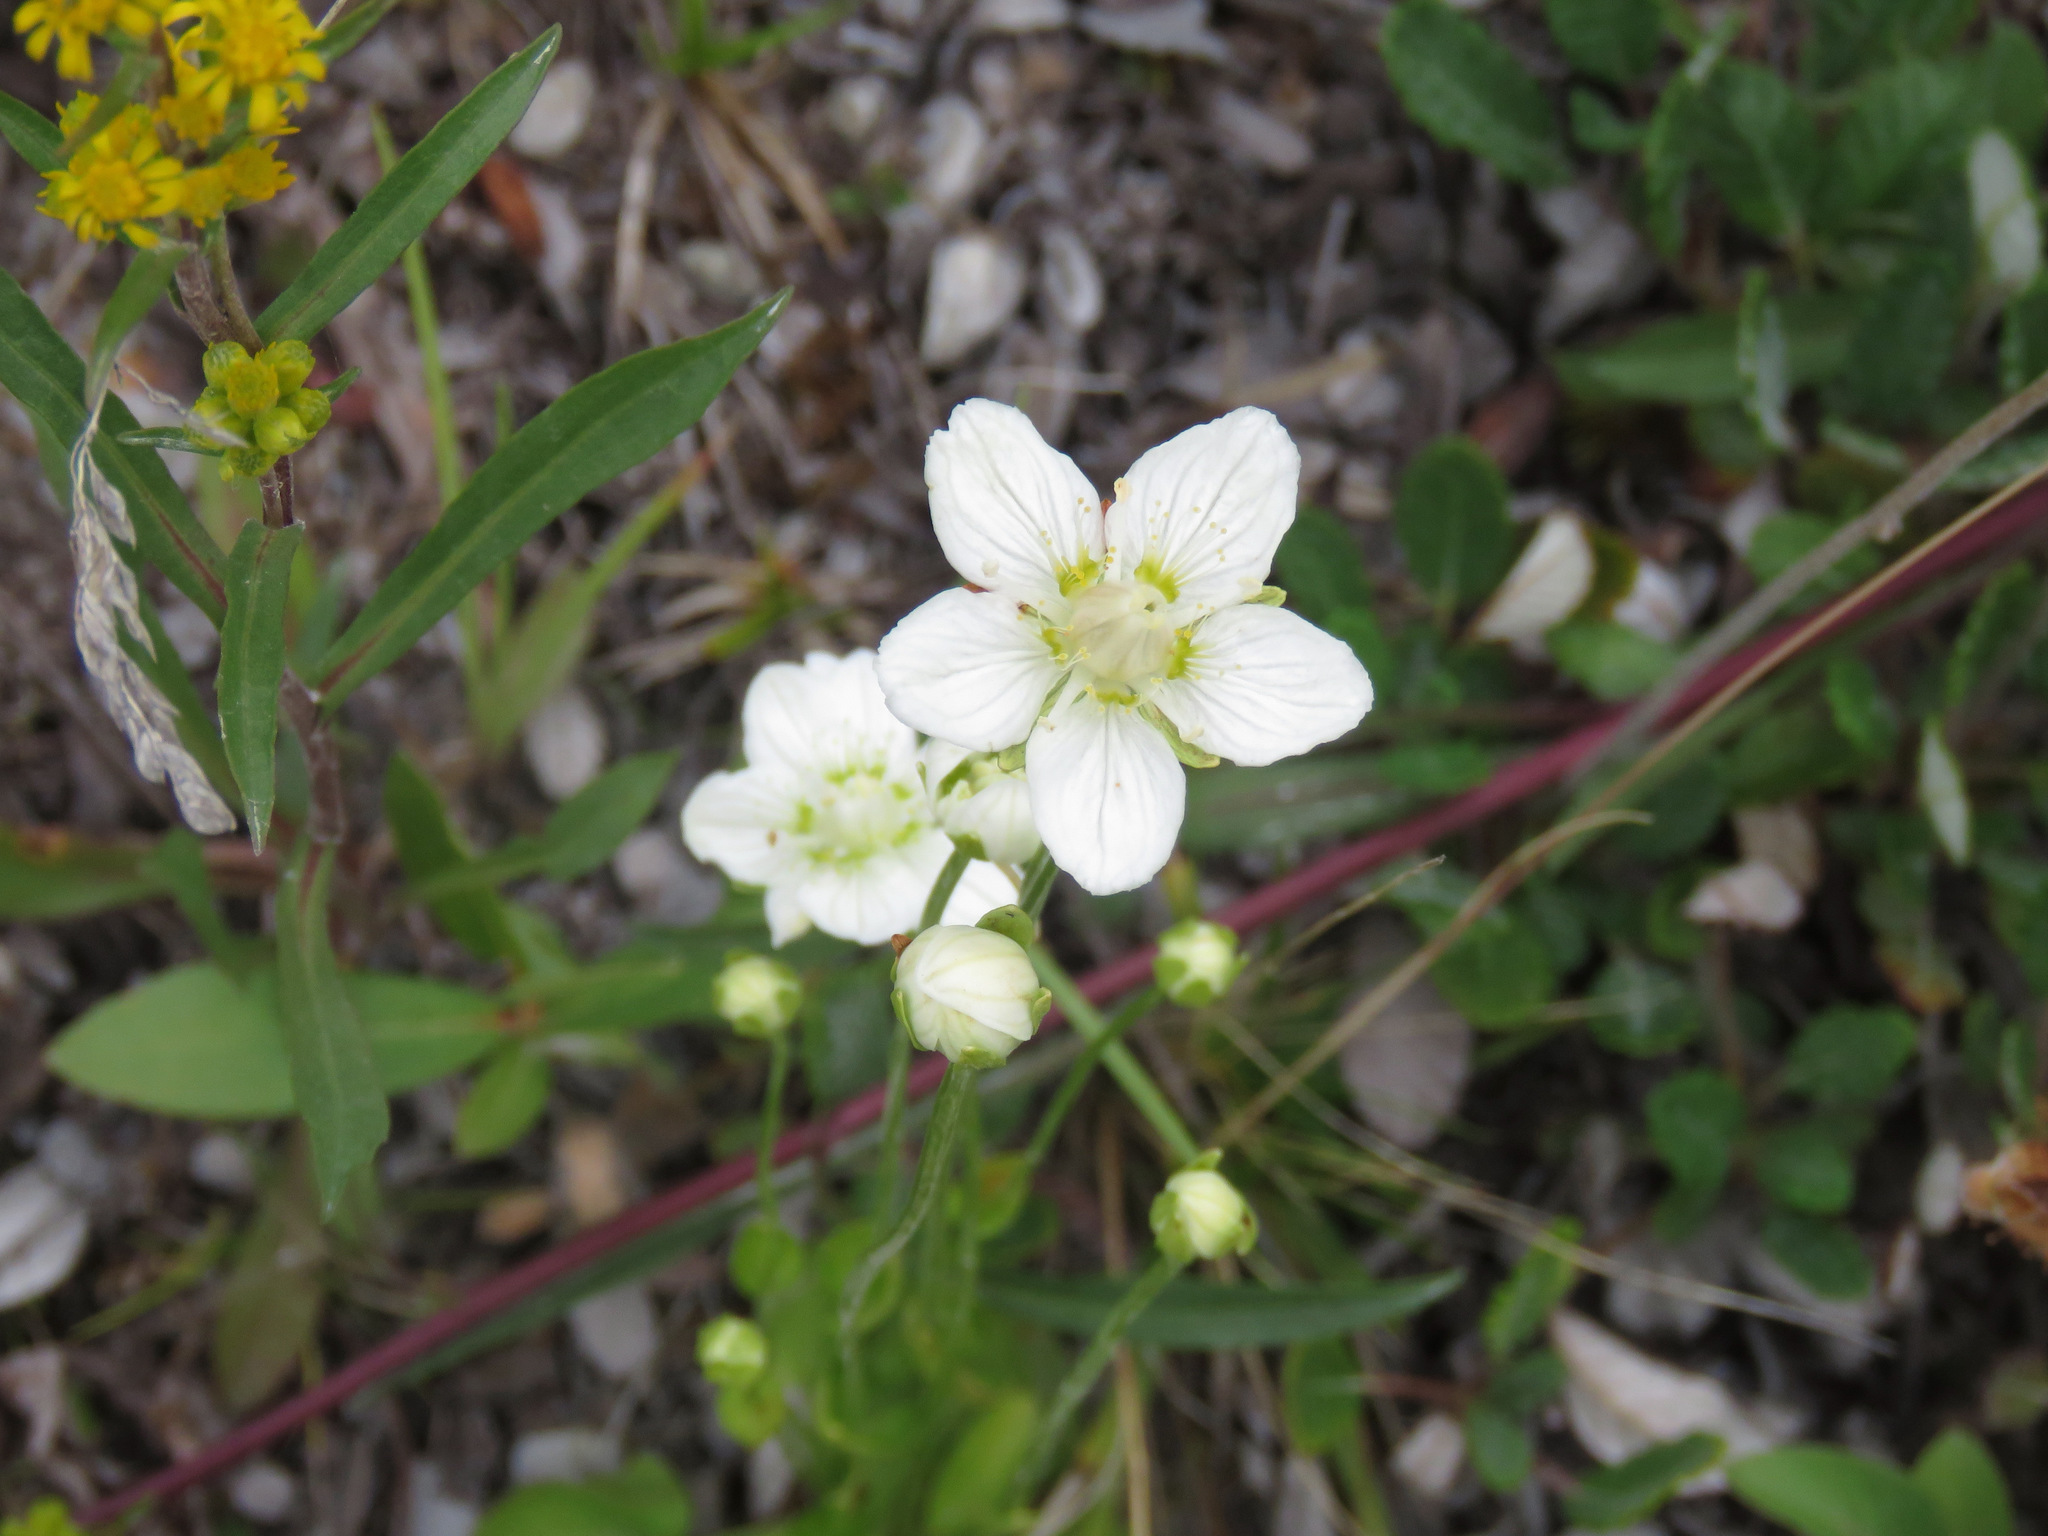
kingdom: Plantae
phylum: Tracheophyta
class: Magnoliopsida
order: Celastrales
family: Parnassiaceae
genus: Parnassia
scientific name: Parnassia palustris
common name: Grass-of-parnassus
